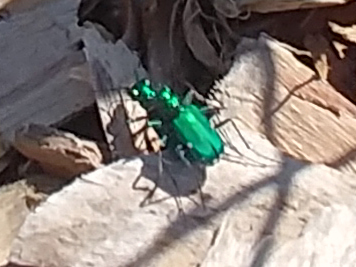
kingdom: Animalia
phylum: Arthropoda
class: Insecta
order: Coleoptera
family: Carabidae
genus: Cicindela
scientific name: Cicindela sexguttata
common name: Six-spotted tiger beetle
